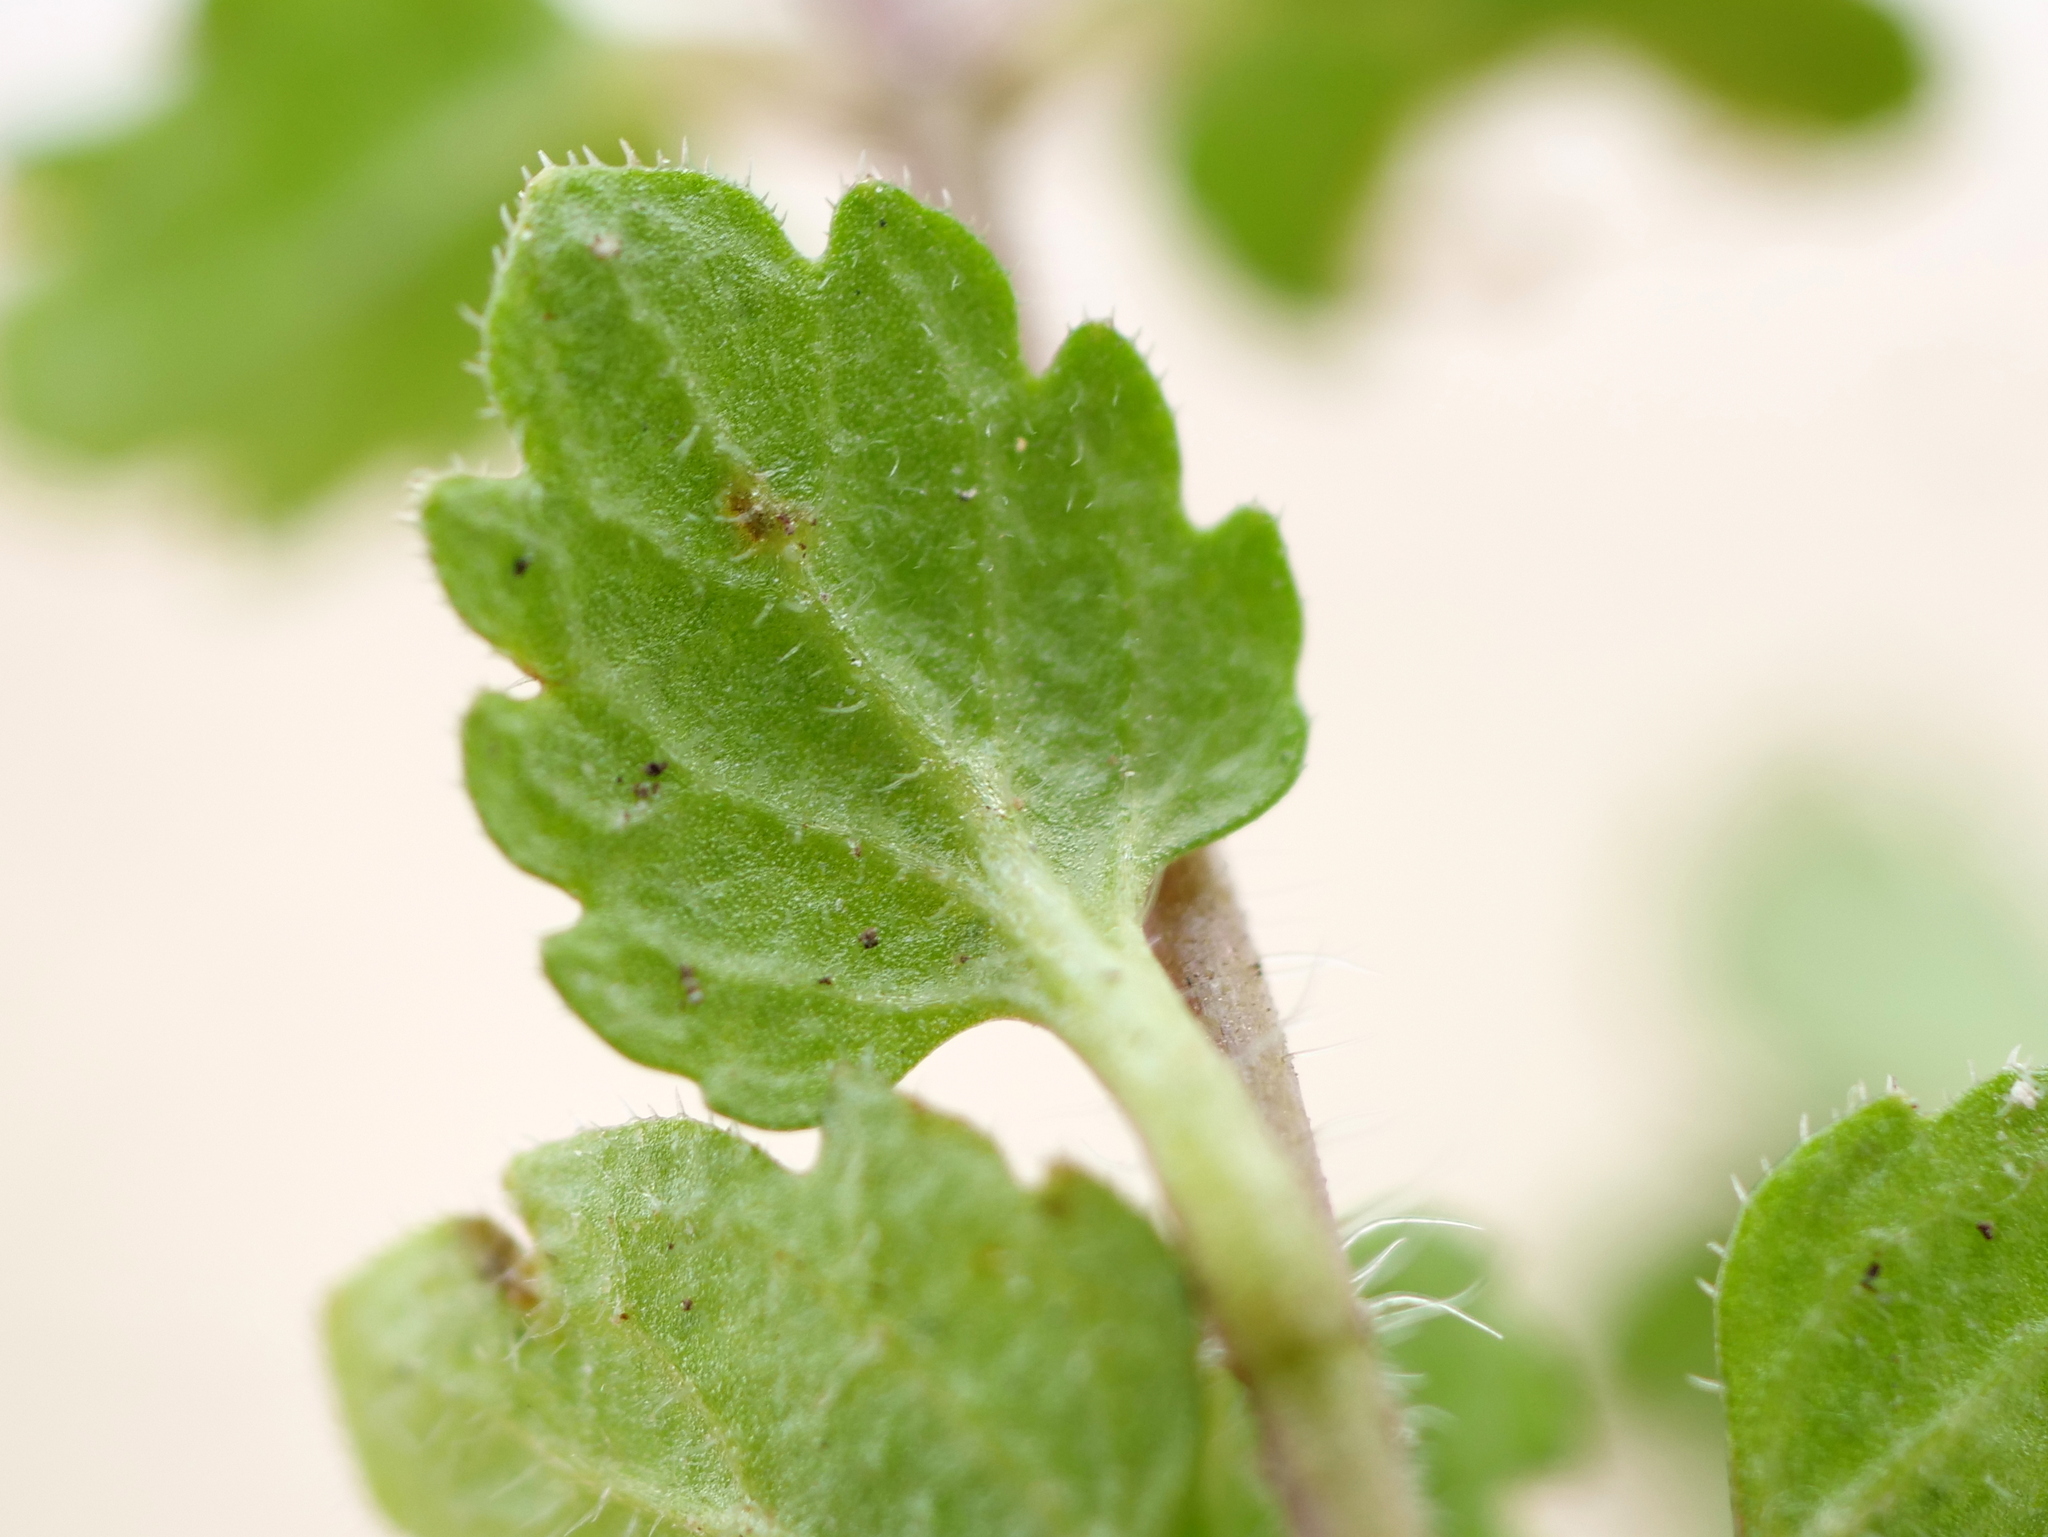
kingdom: Plantae
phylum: Tracheophyta
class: Magnoliopsida
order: Lamiales
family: Plantaginaceae
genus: Veronica
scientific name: Veronica polita
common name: Grey field-speedwell
